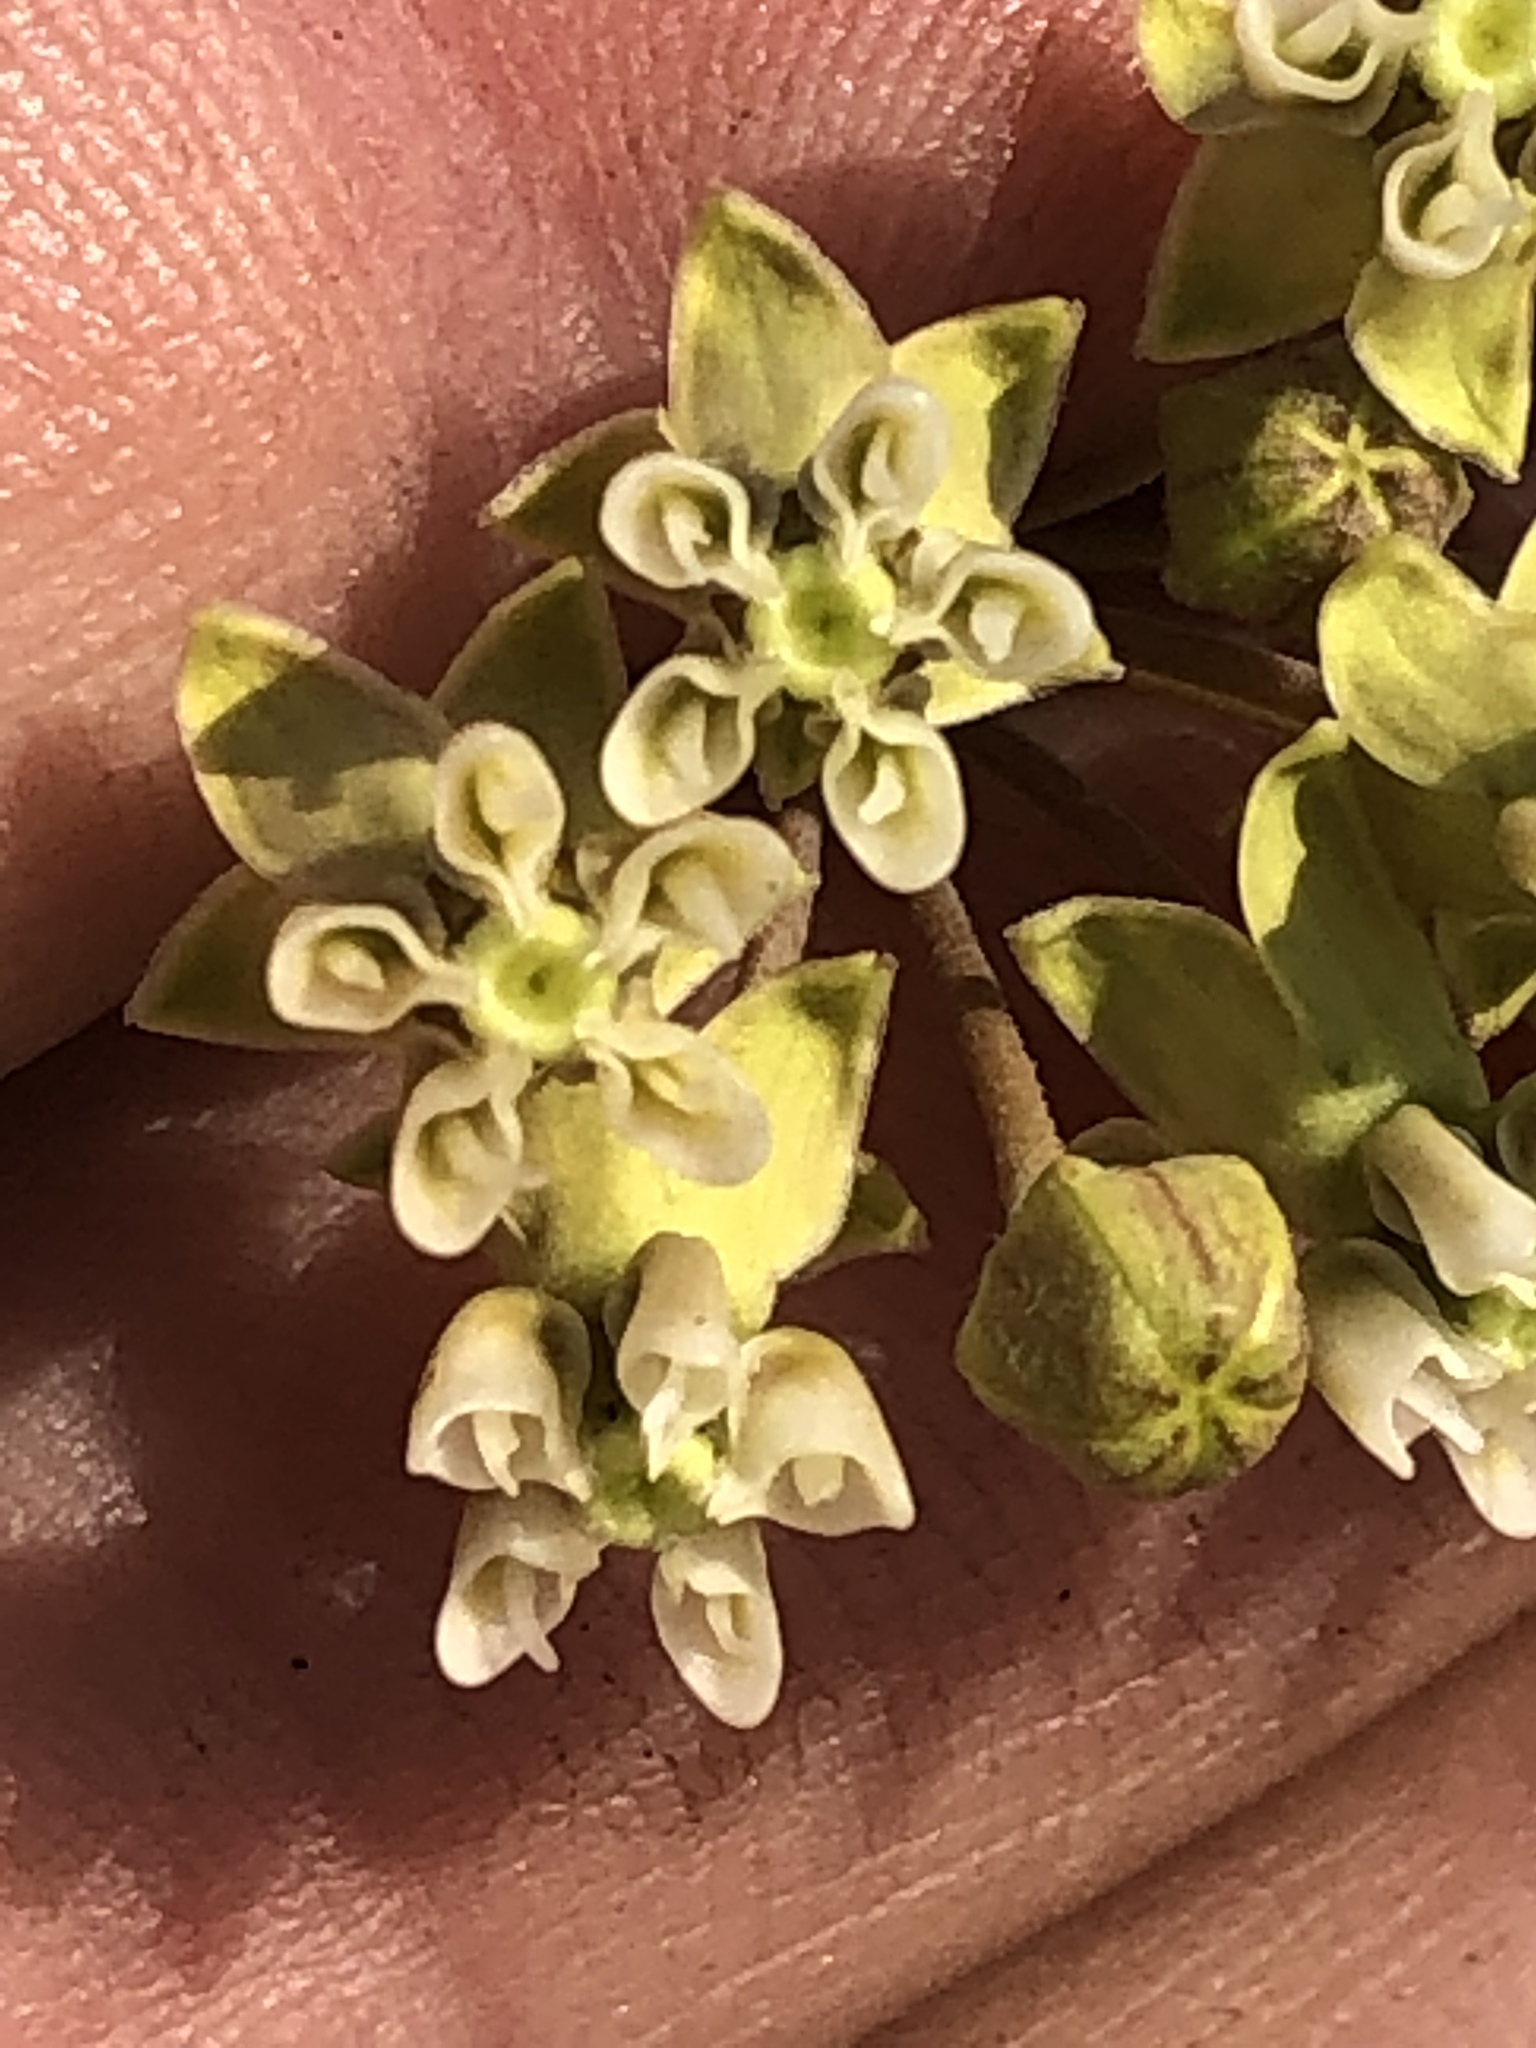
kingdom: Plantae
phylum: Tracheophyta
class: Magnoliopsida
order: Gentianales
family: Apocynaceae
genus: Gomphocarpus
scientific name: Gomphocarpus filiformis
